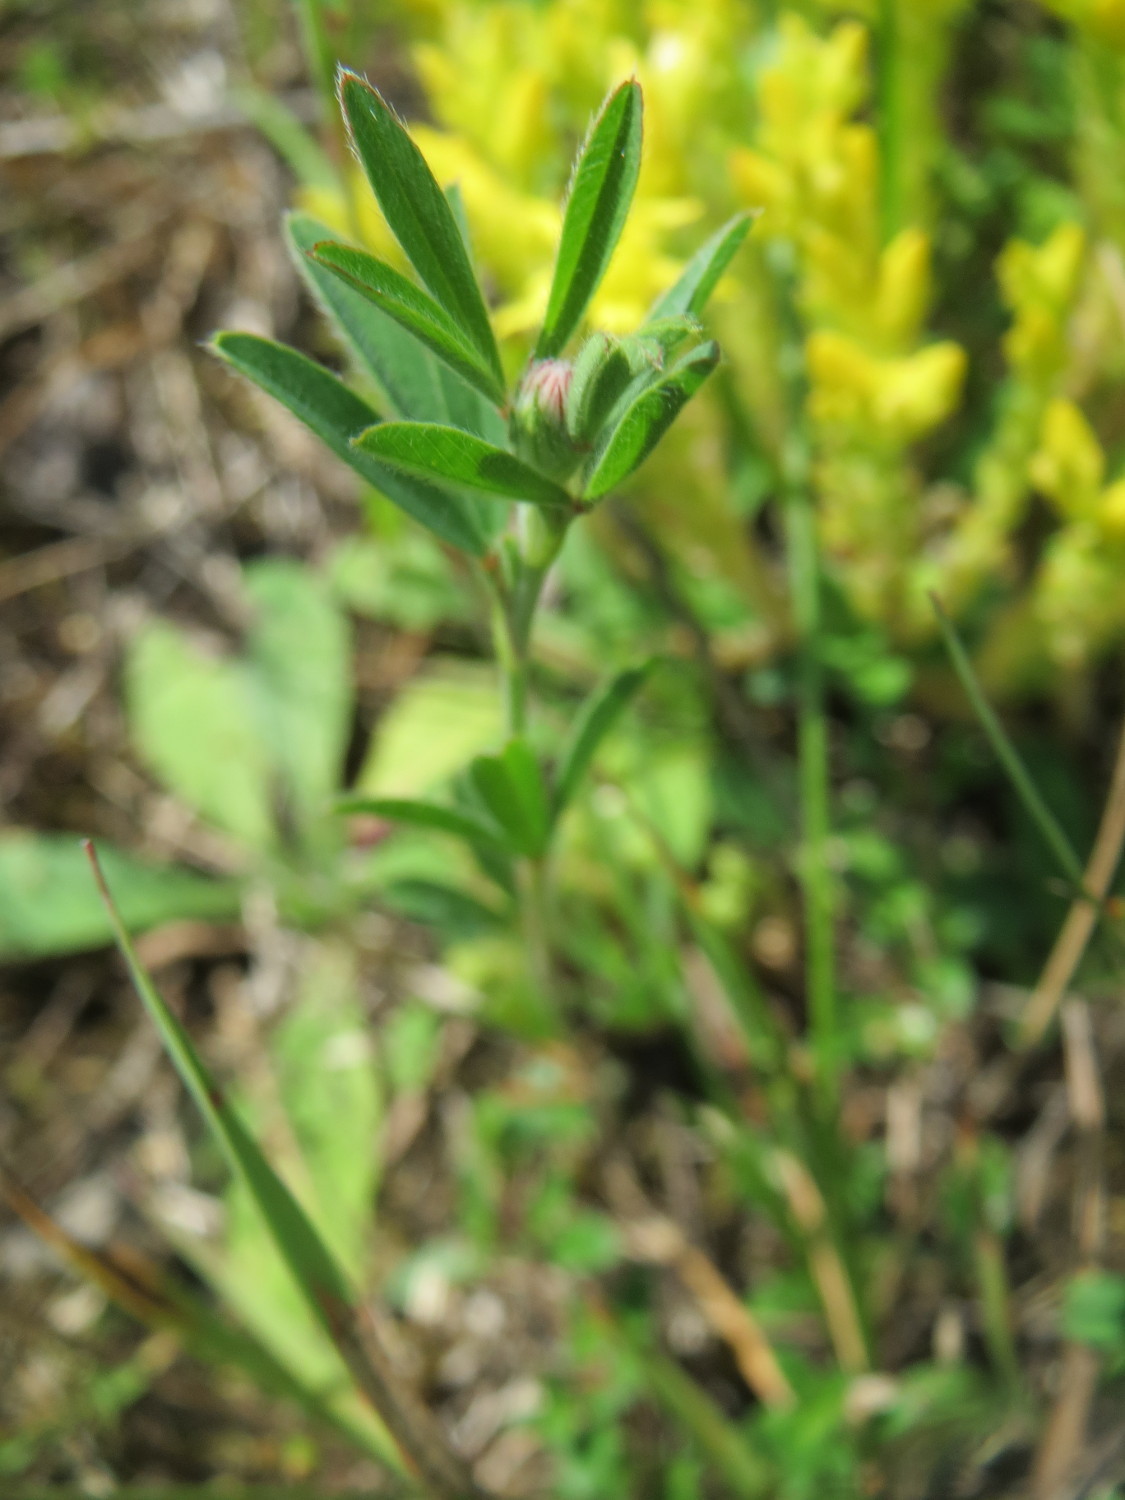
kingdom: Plantae
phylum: Tracheophyta
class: Magnoliopsida
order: Fabales
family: Fabaceae
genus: Trifolium
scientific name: Trifolium arvense
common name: Hare's-foot clover
